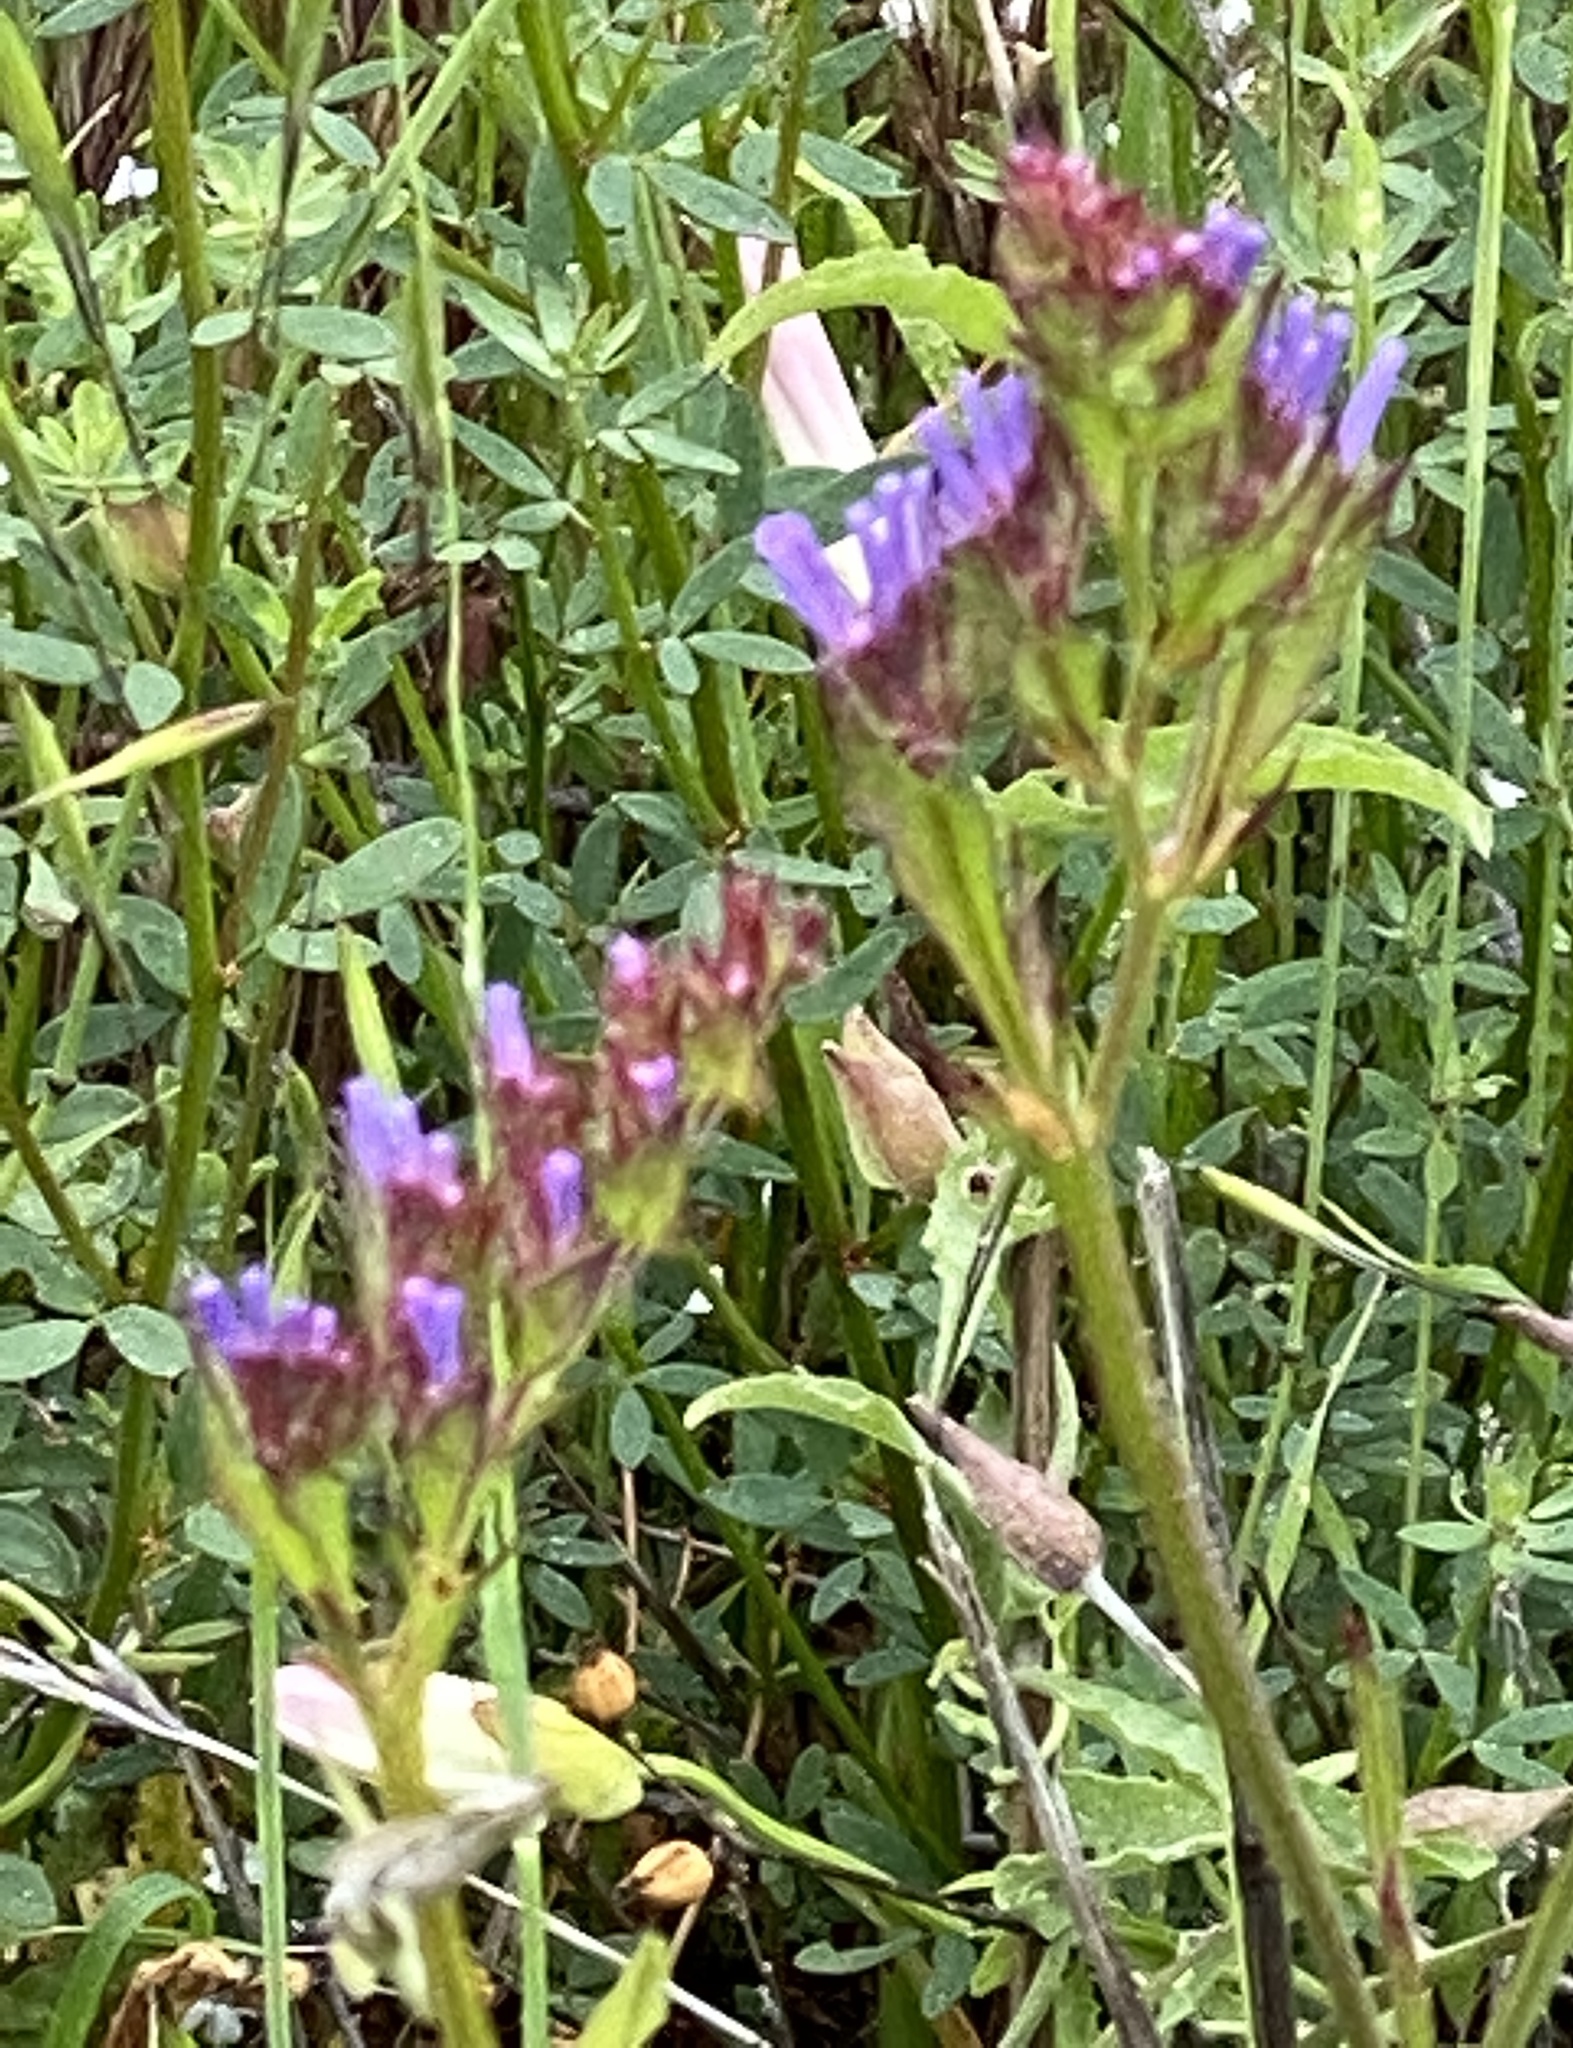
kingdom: Plantae
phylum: Tracheophyta
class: Magnoliopsida
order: Caryophyllales
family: Plumbaginaceae
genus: Limonium
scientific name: Limonium sinuatum
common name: Statice
